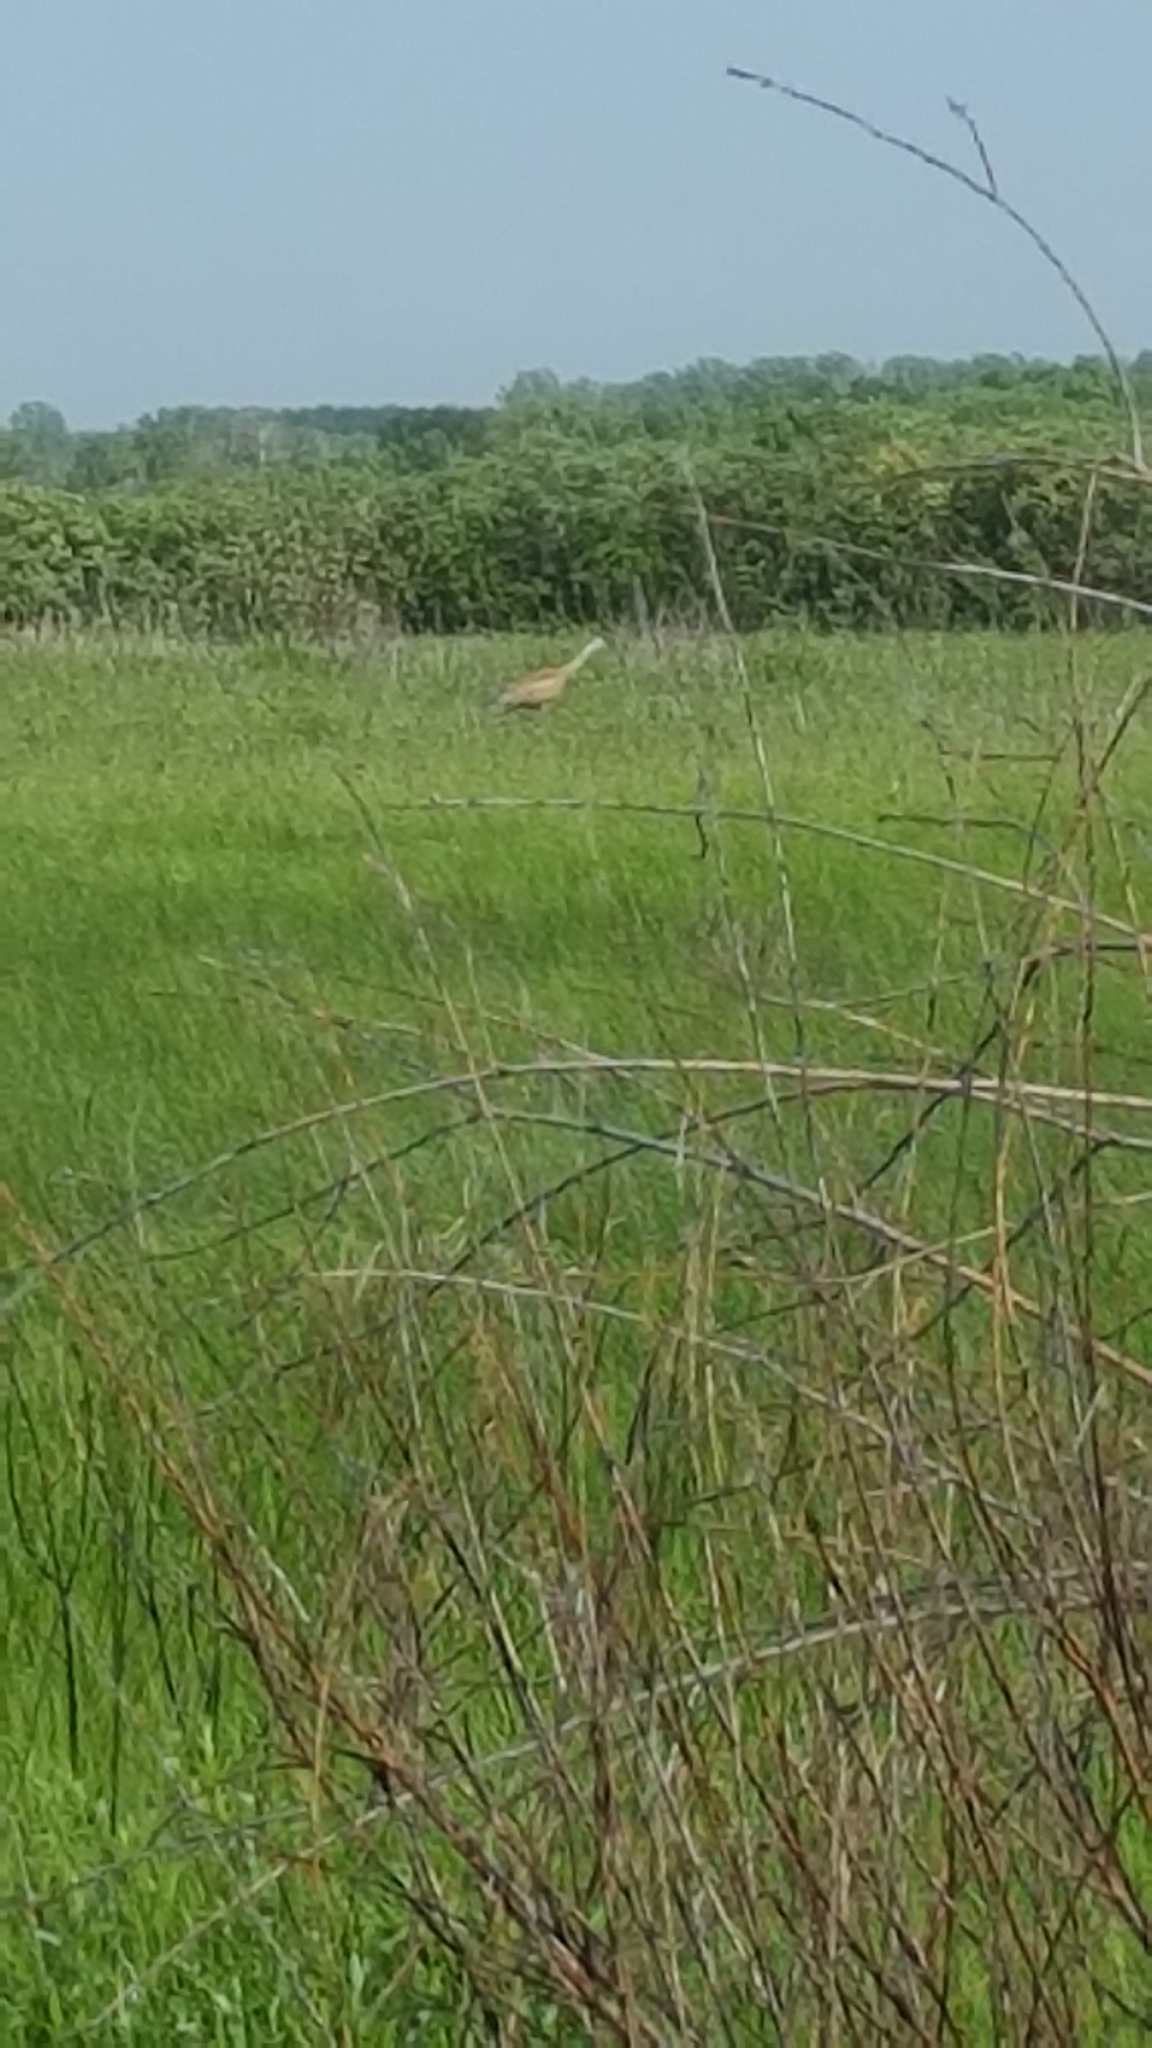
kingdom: Animalia
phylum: Chordata
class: Aves
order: Gruiformes
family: Gruidae
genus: Grus
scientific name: Grus canadensis
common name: Sandhill crane
